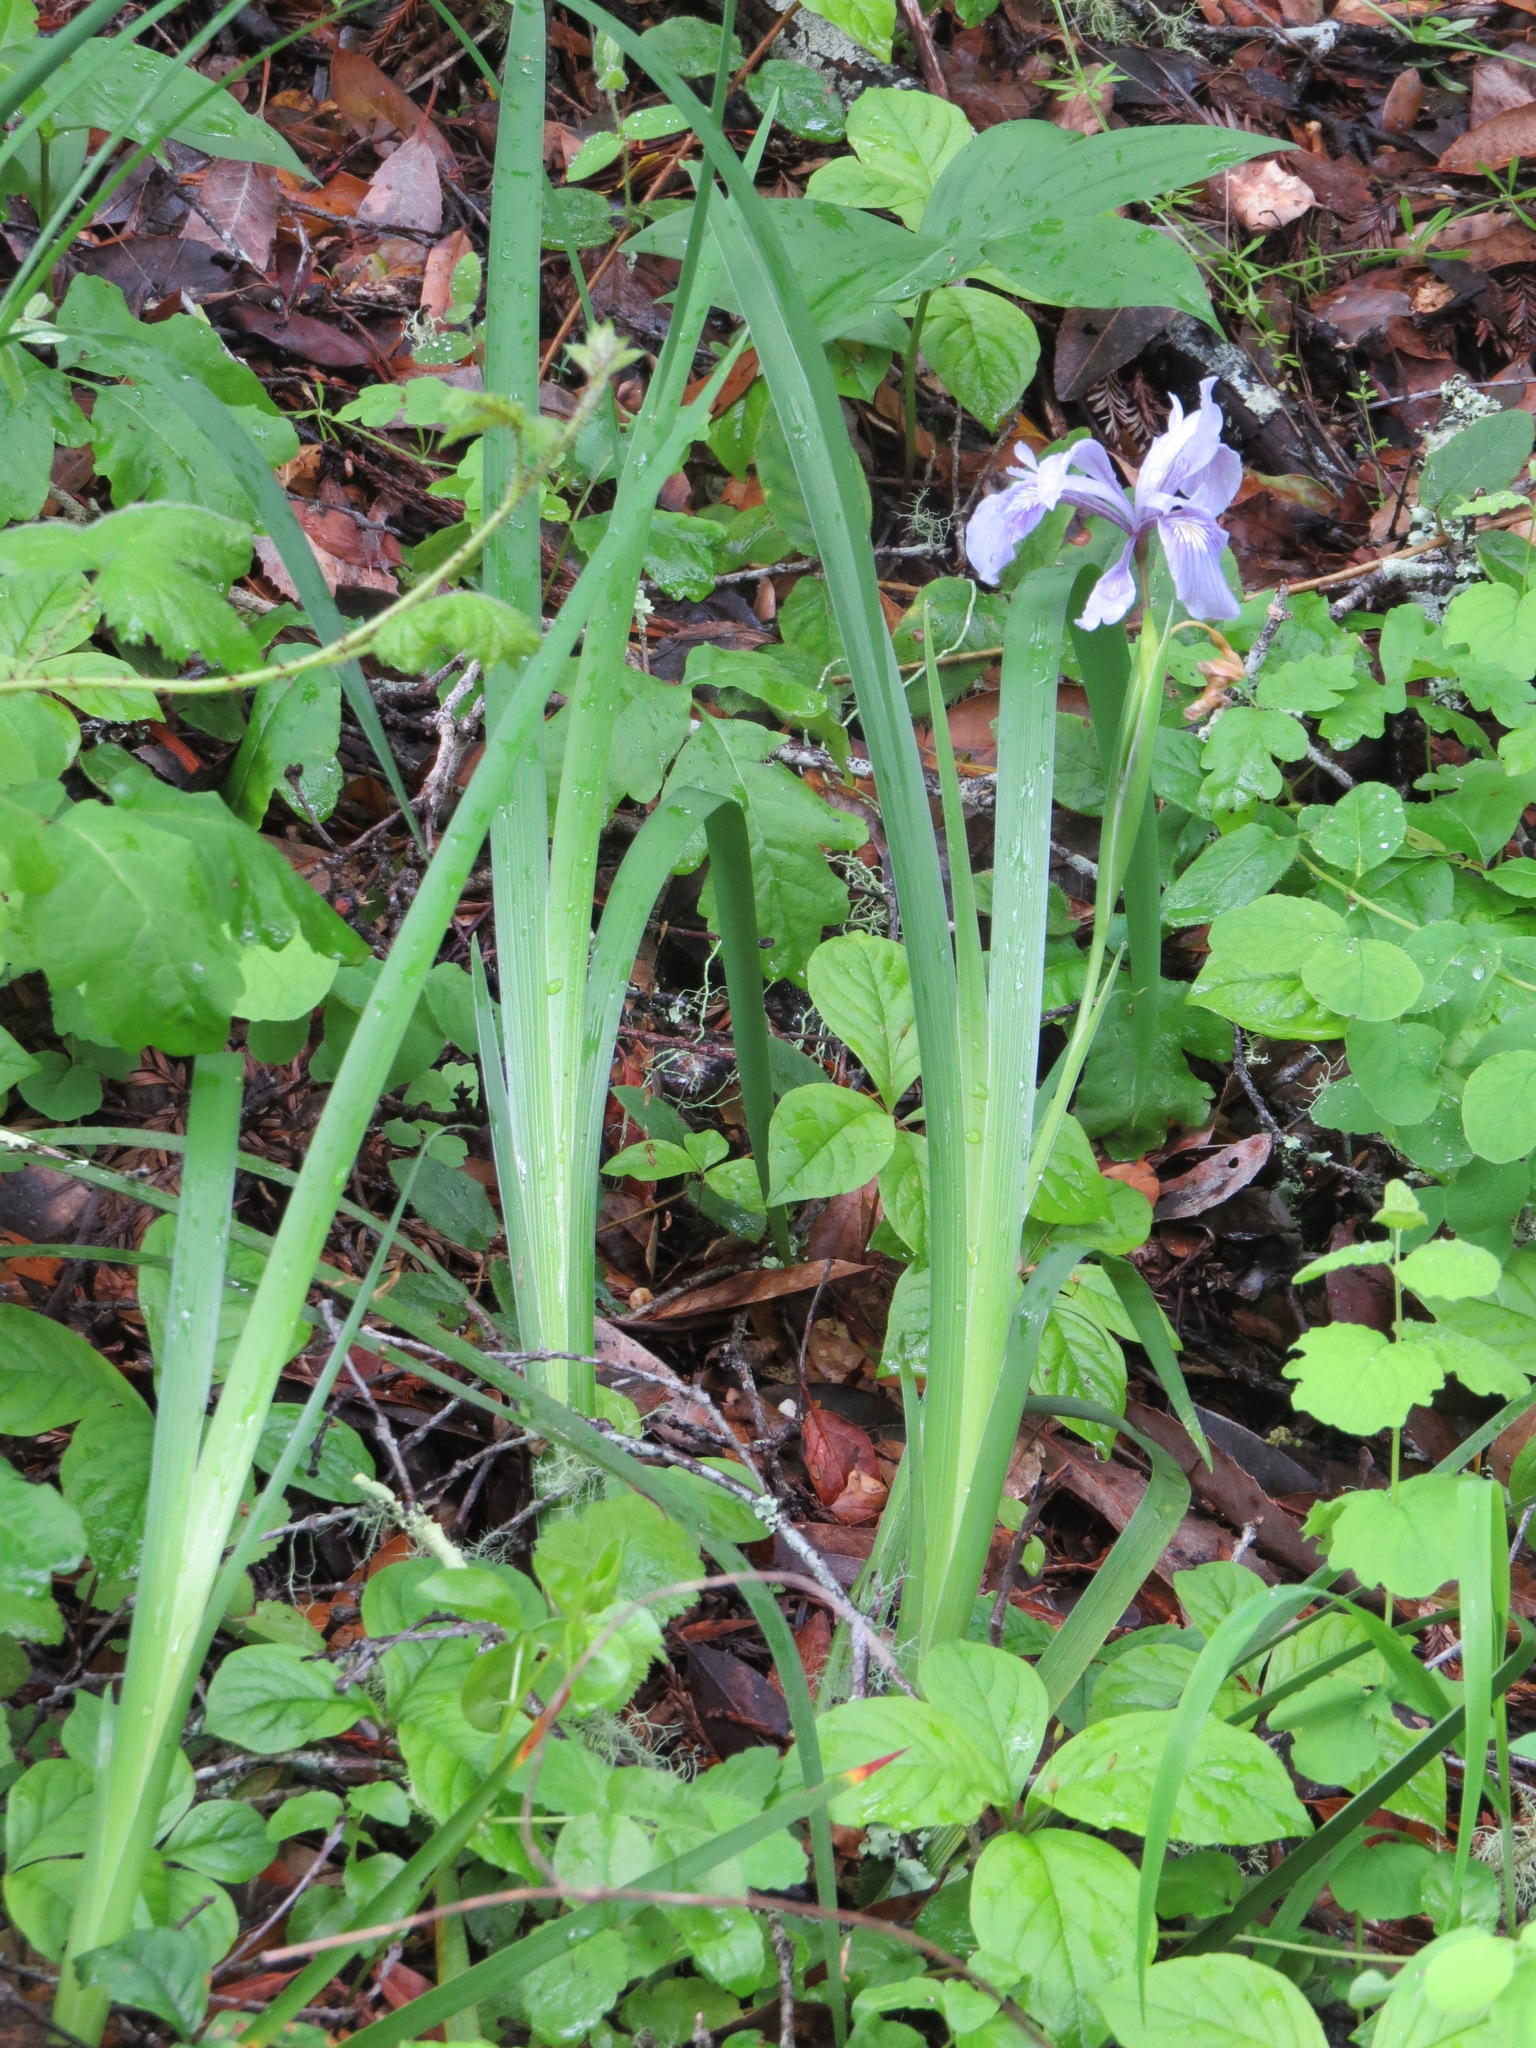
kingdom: Plantae
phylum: Tracheophyta
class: Liliopsida
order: Asparagales
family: Iridaceae
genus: Iris
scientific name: Iris douglasiana
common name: Marin iris
